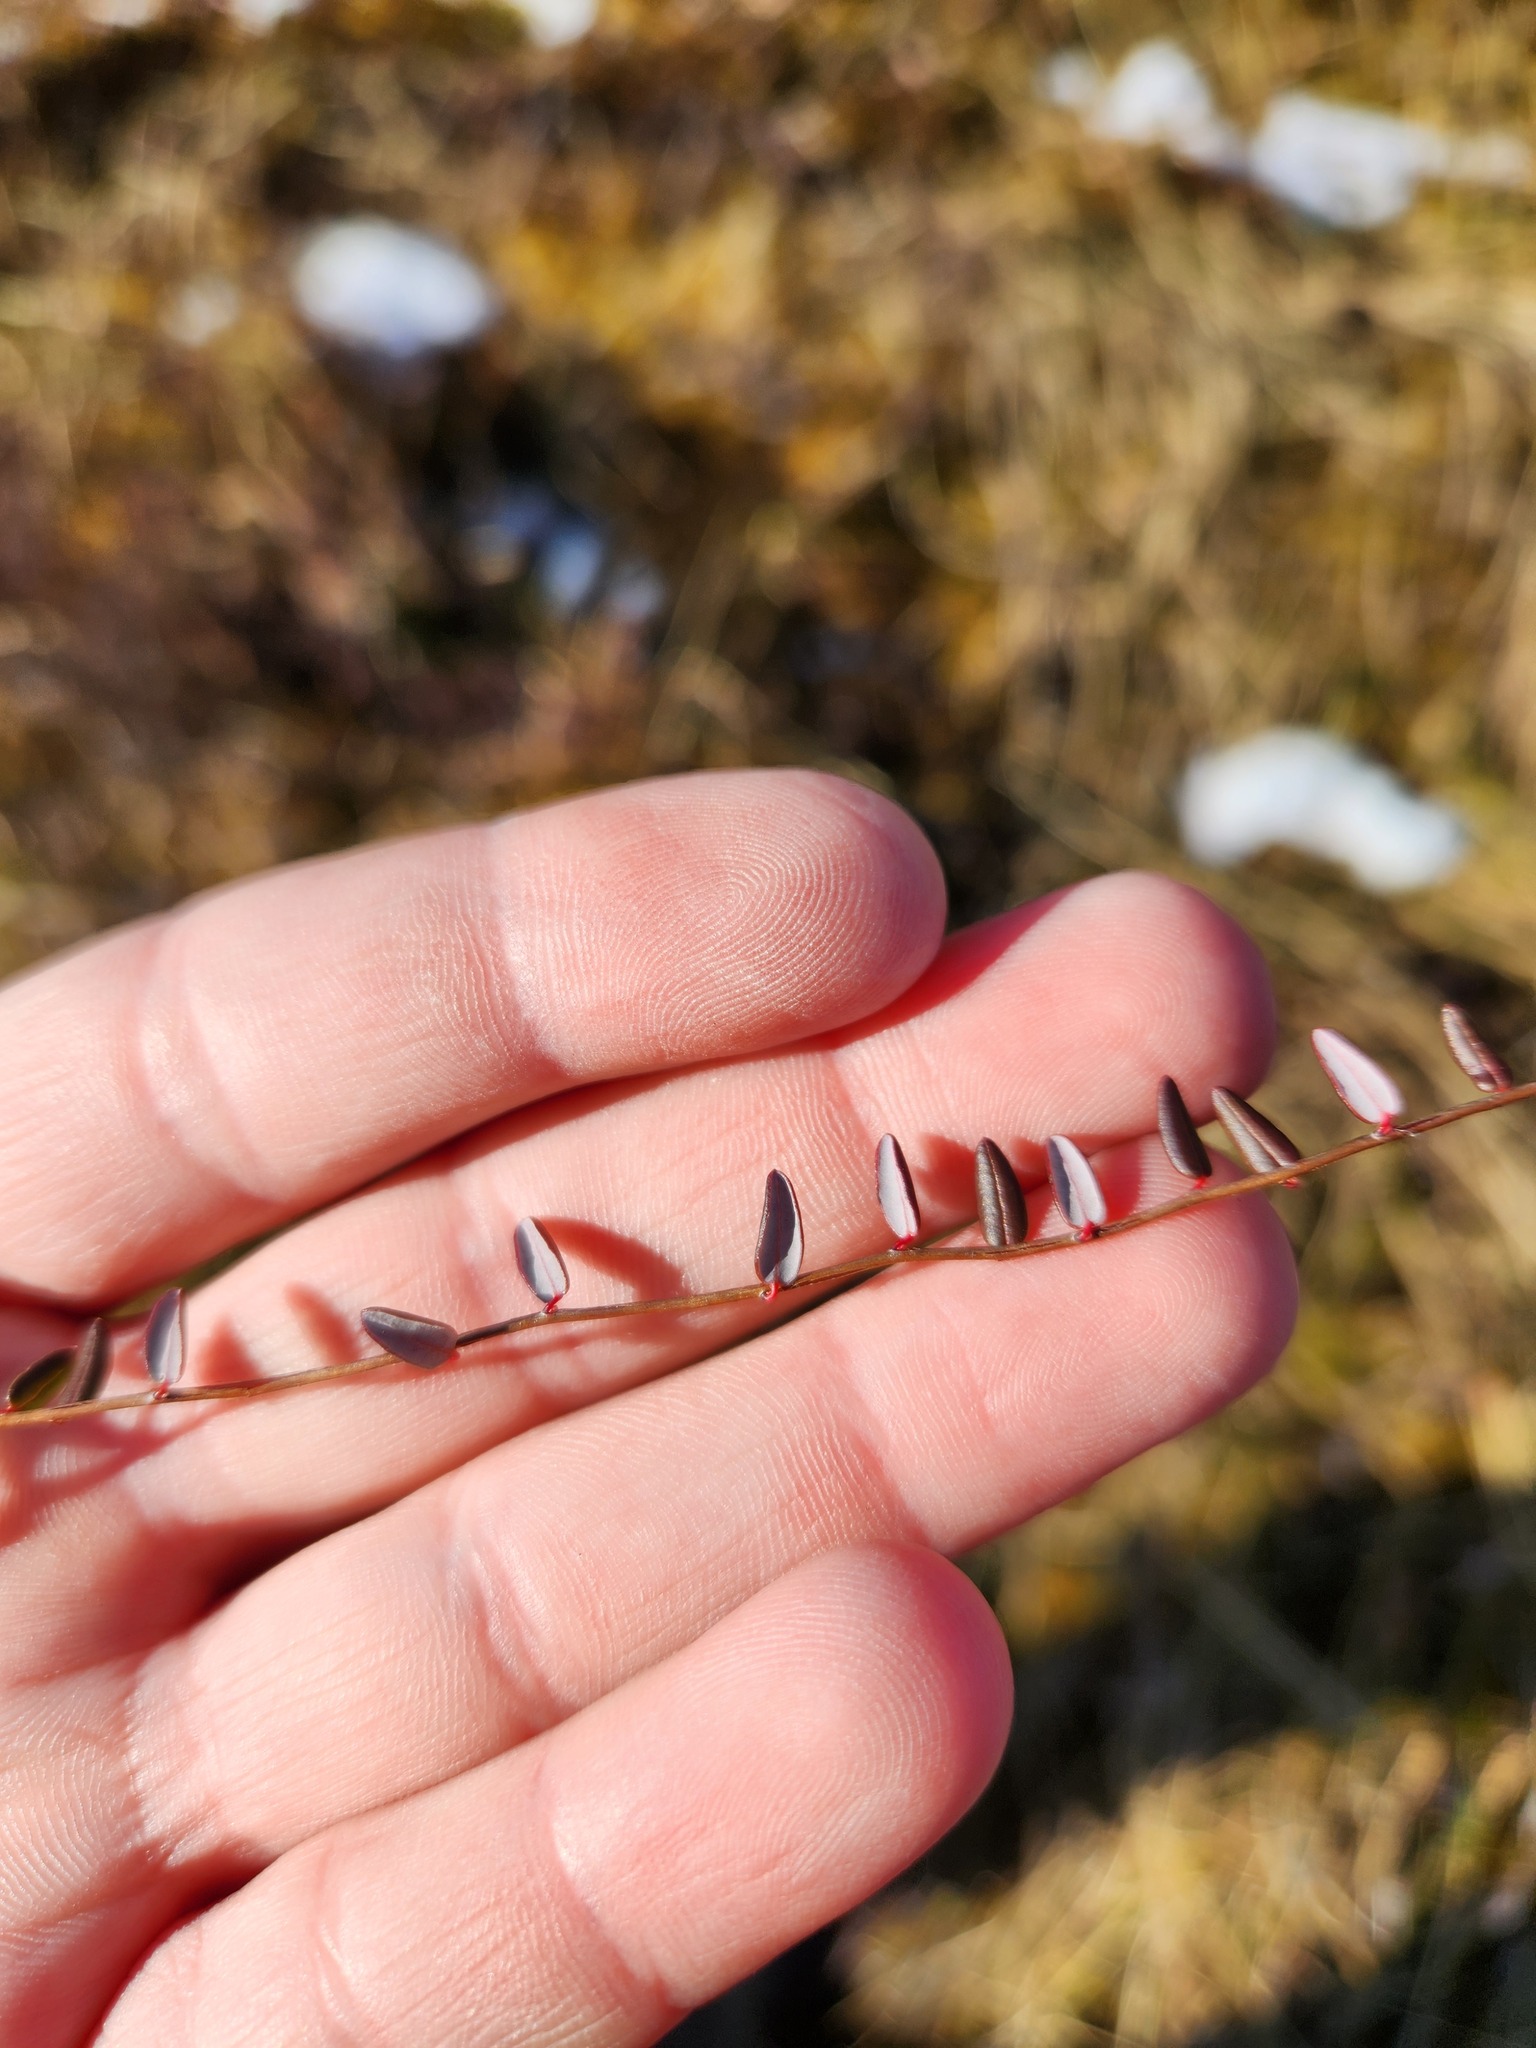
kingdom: Plantae
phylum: Tracheophyta
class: Magnoliopsida
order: Ericales
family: Ericaceae
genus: Vaccinium
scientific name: Vaccinium oxycoccos
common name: Cranberry
